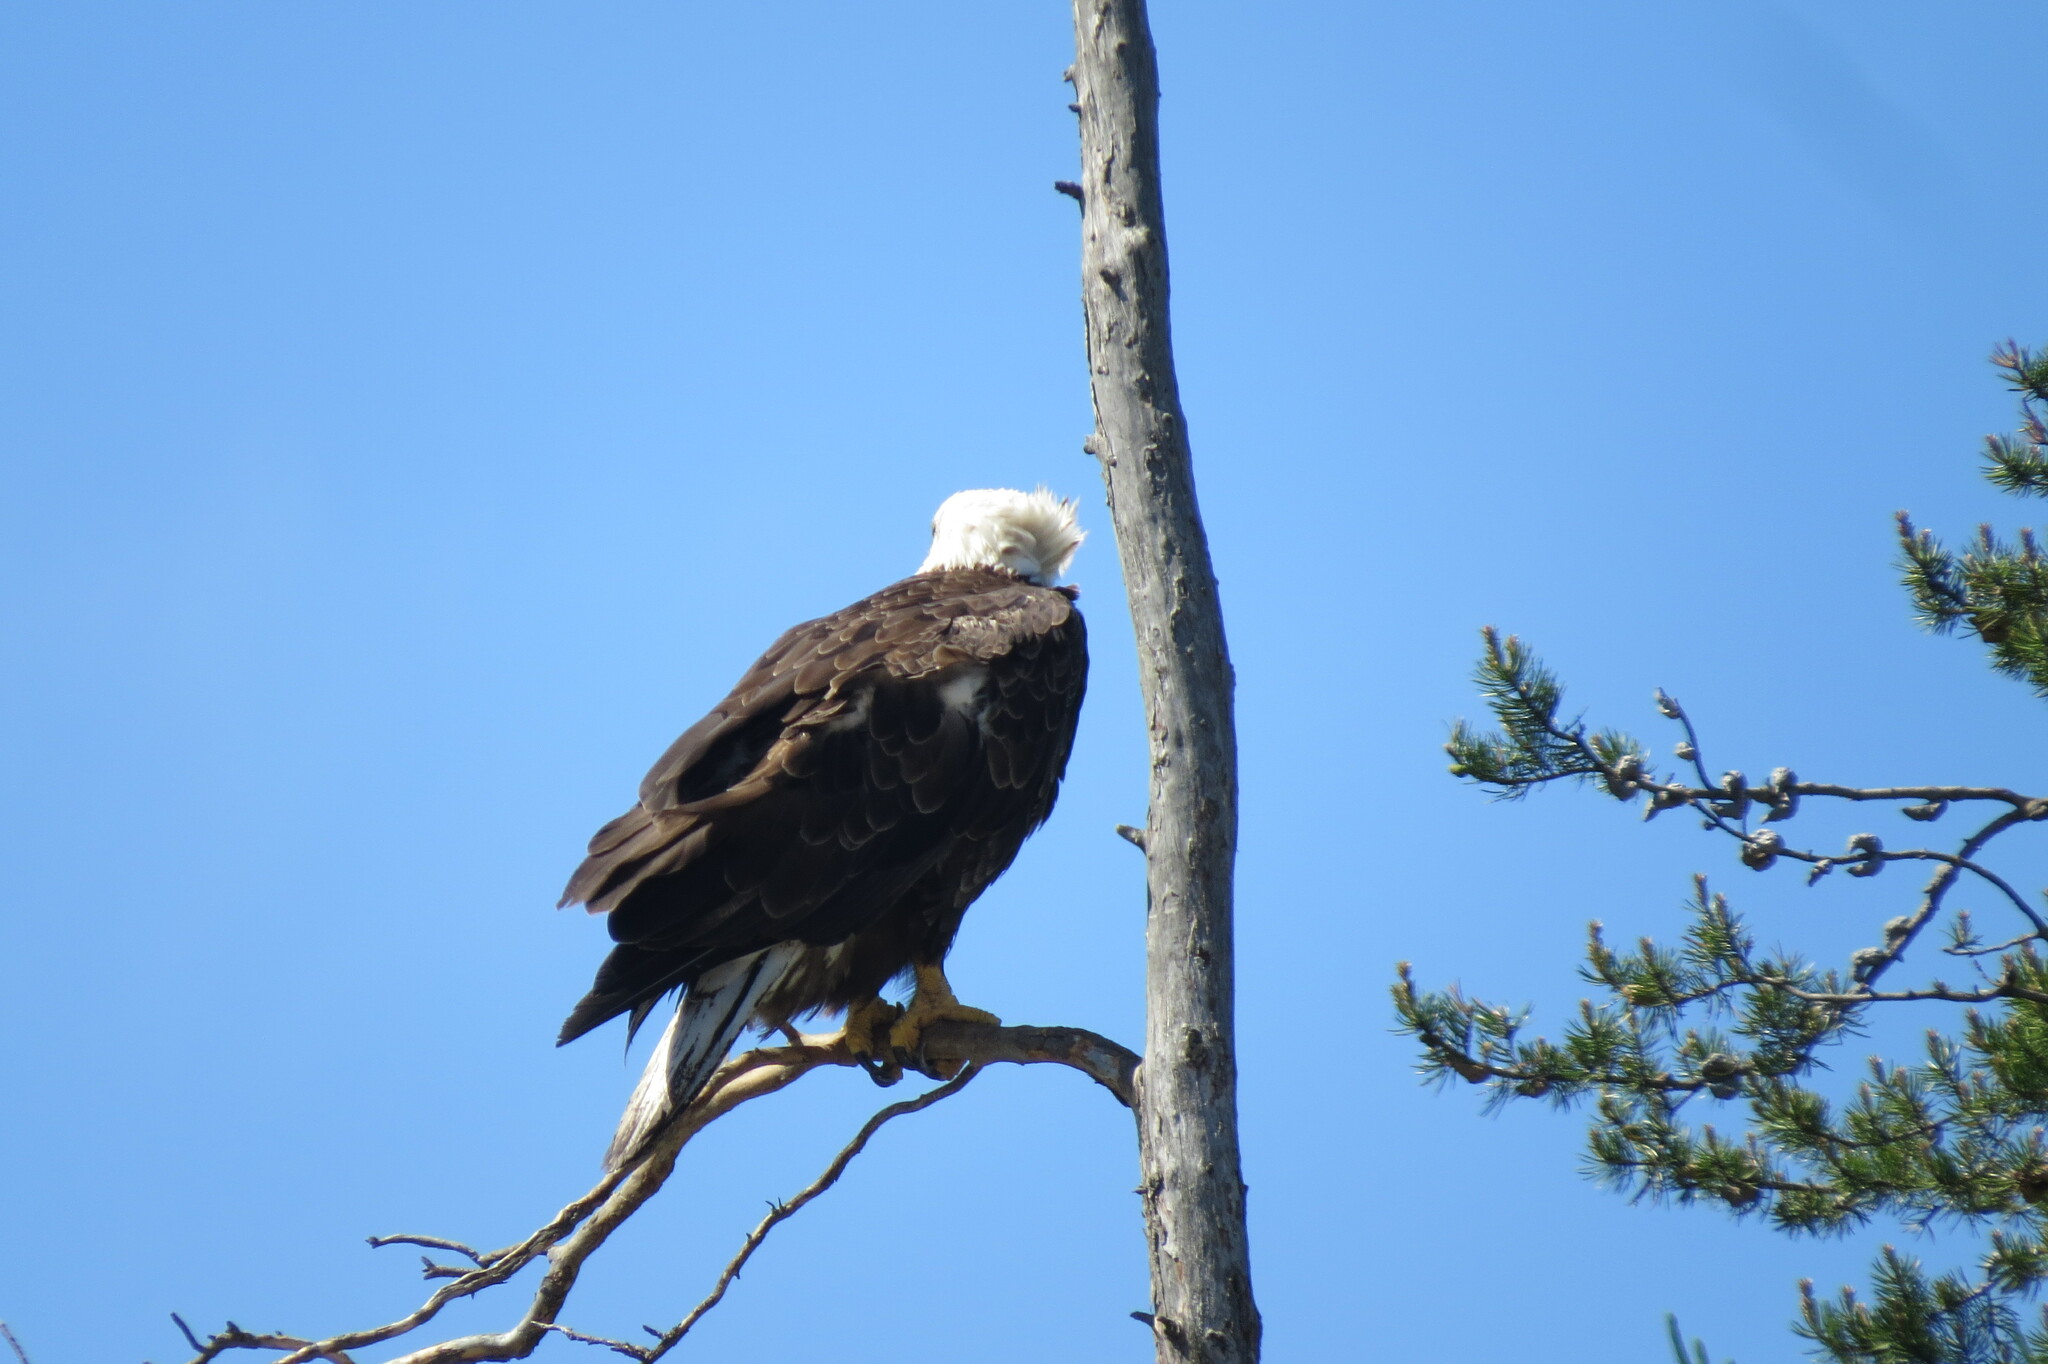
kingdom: Animalia
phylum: Chordata
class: Aves
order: Accipitriformes
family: Accipitridae
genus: Haliaeetus
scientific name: Haliaeetus leucocephalus
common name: Bald eagle
